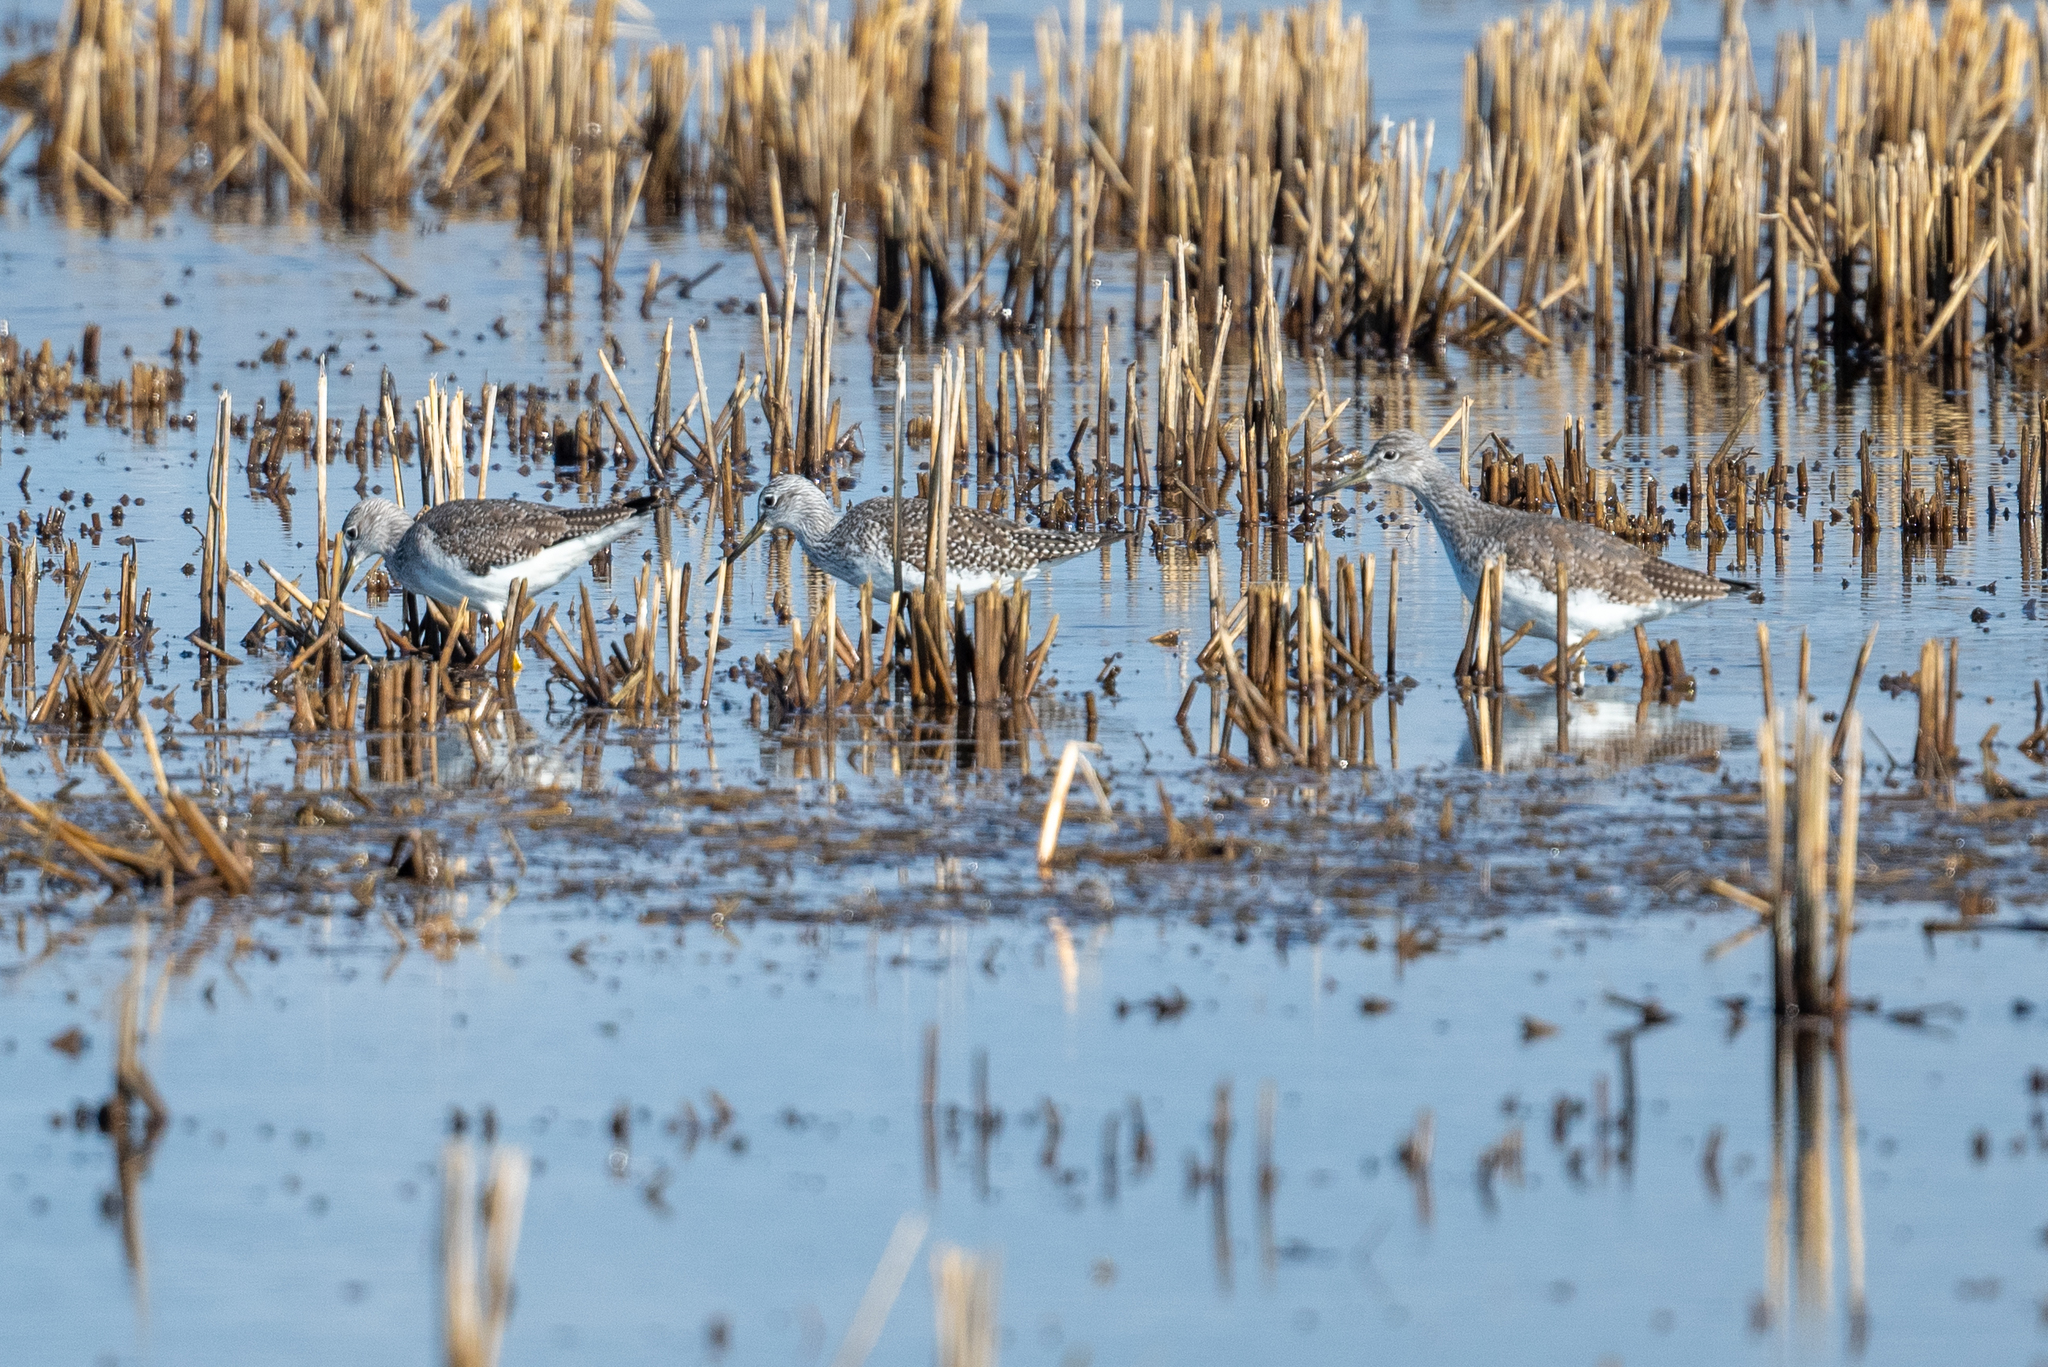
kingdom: Animalia
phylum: Chordata
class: Aves
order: Charadriiformes
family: Scolopacidae
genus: Tringa
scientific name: Tringa melanoleuca
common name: Greater yellowlegs
